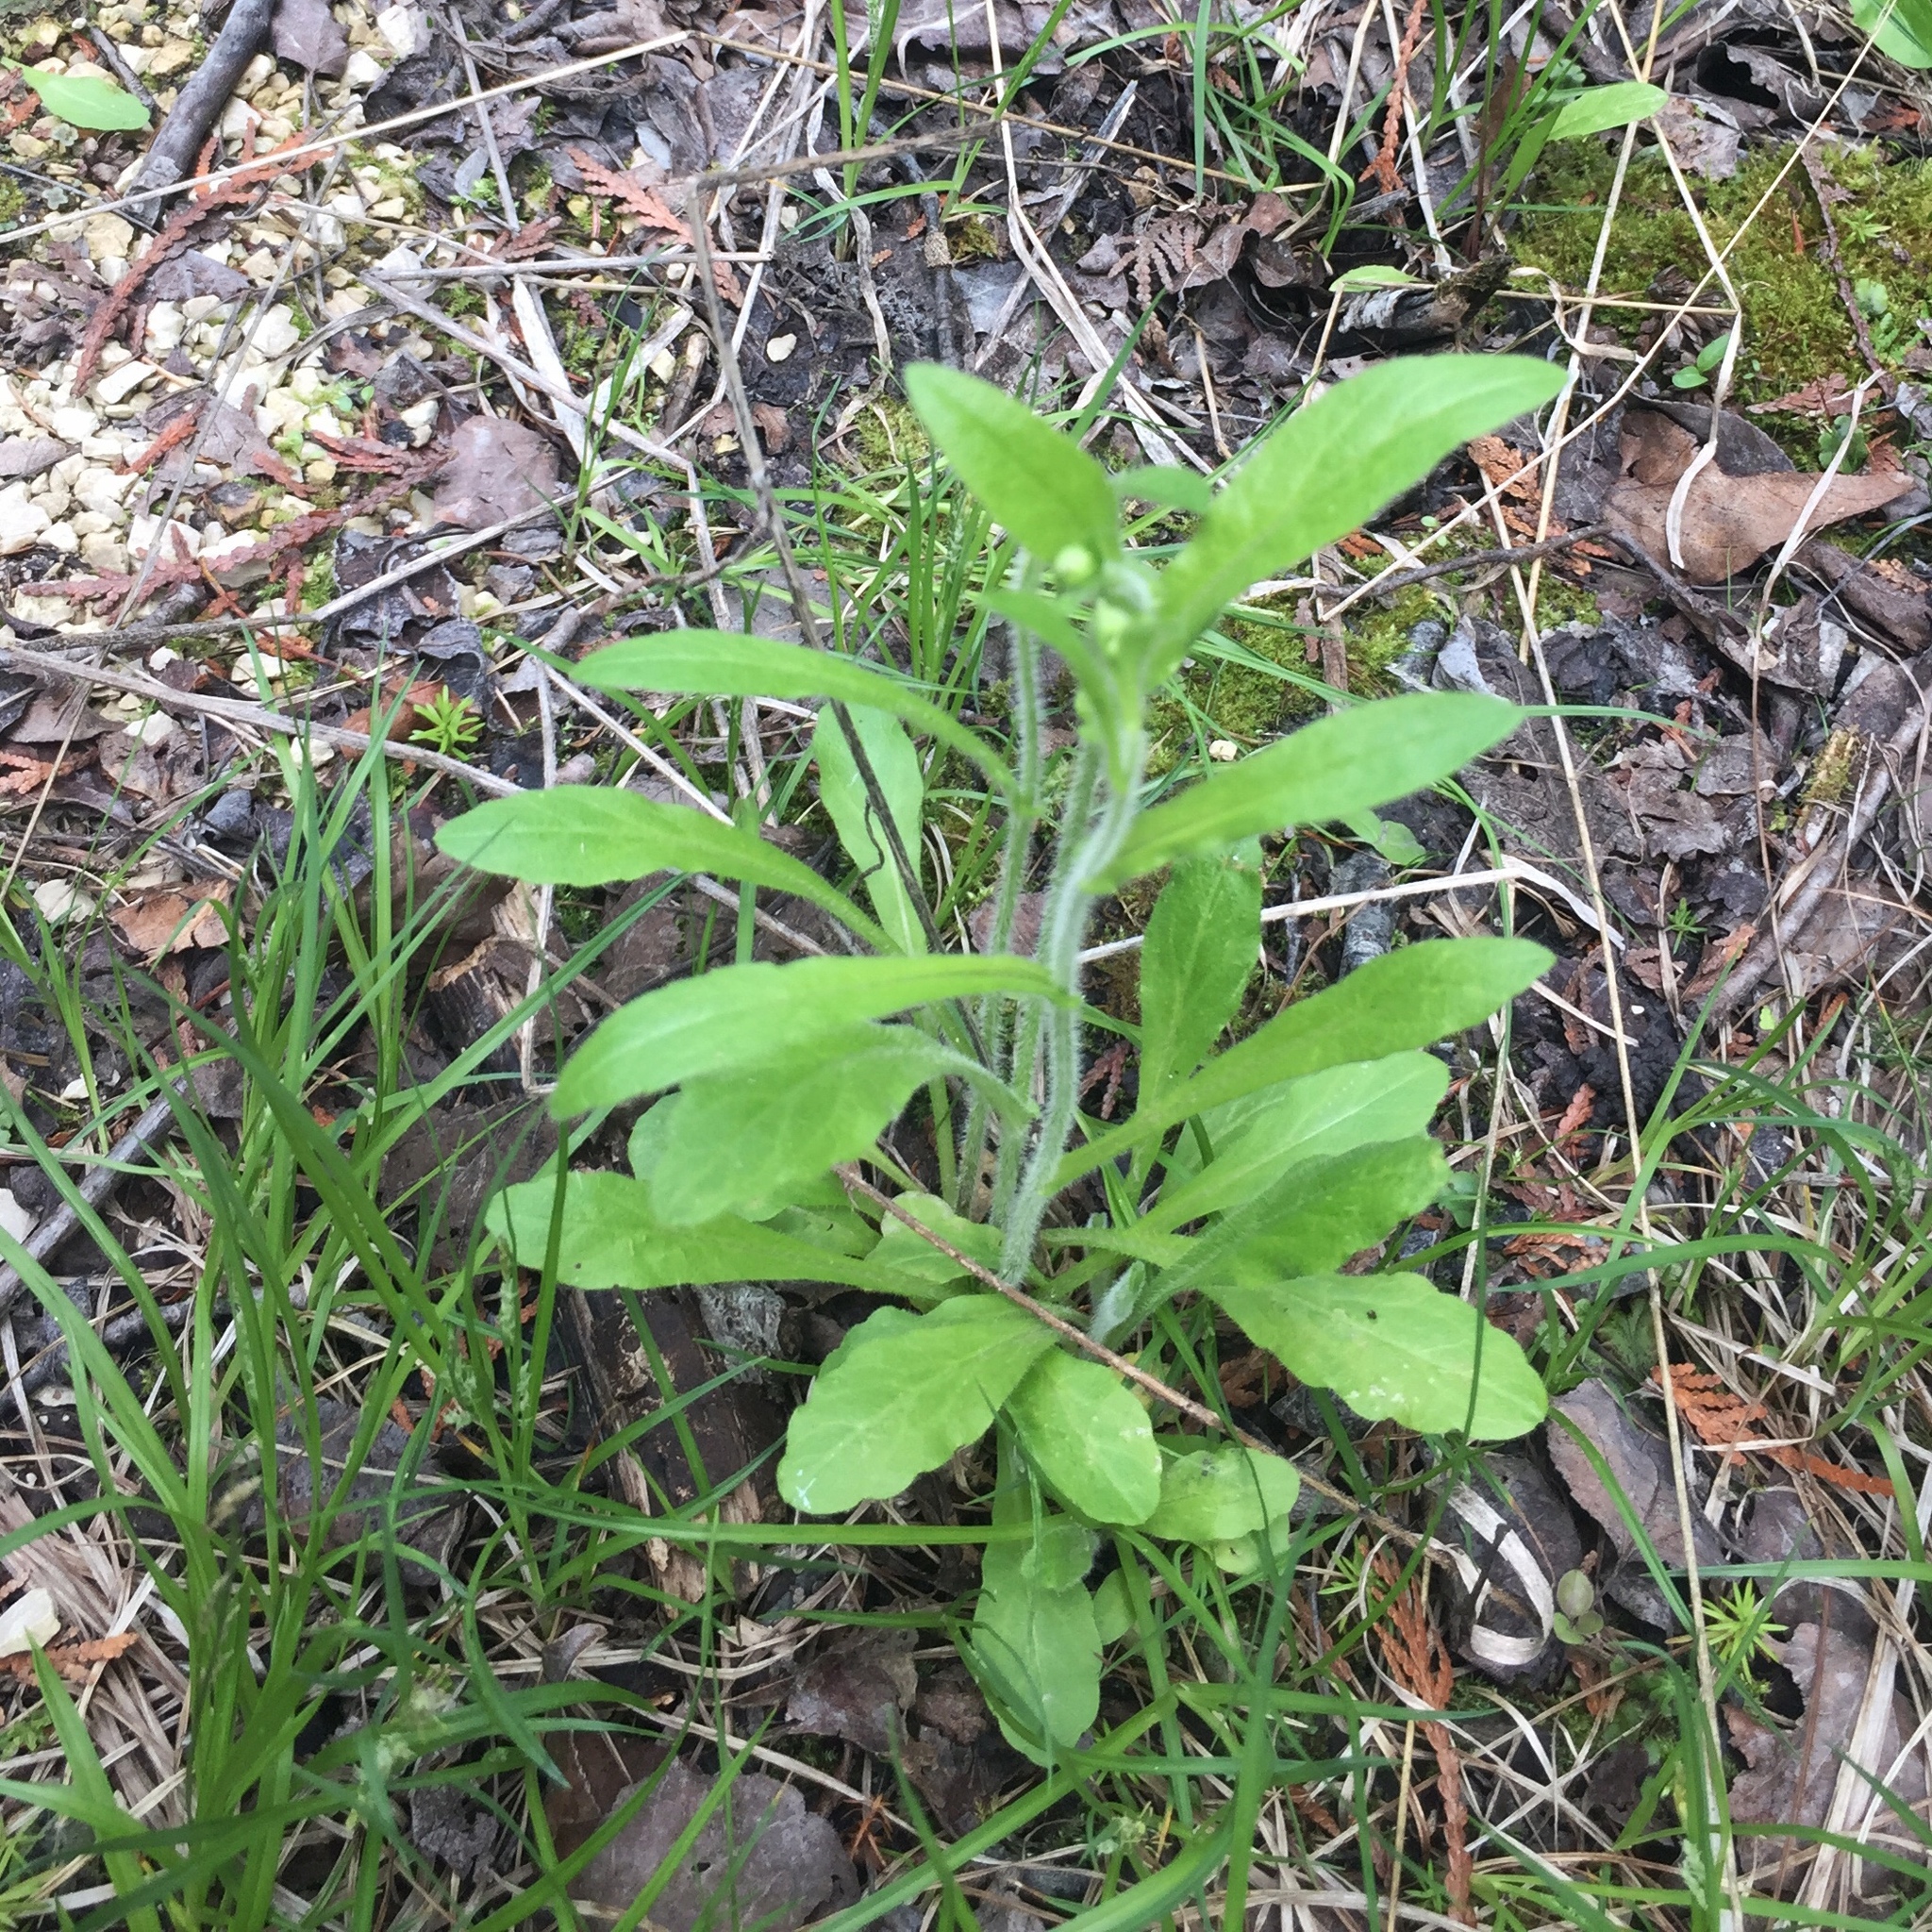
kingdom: Plantae
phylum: Tracheophyta
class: Magnoliopsida
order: Asterales
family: Asteraceae
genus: Erigeron
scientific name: Erigeron philadelphicus
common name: Robin's-plantain
